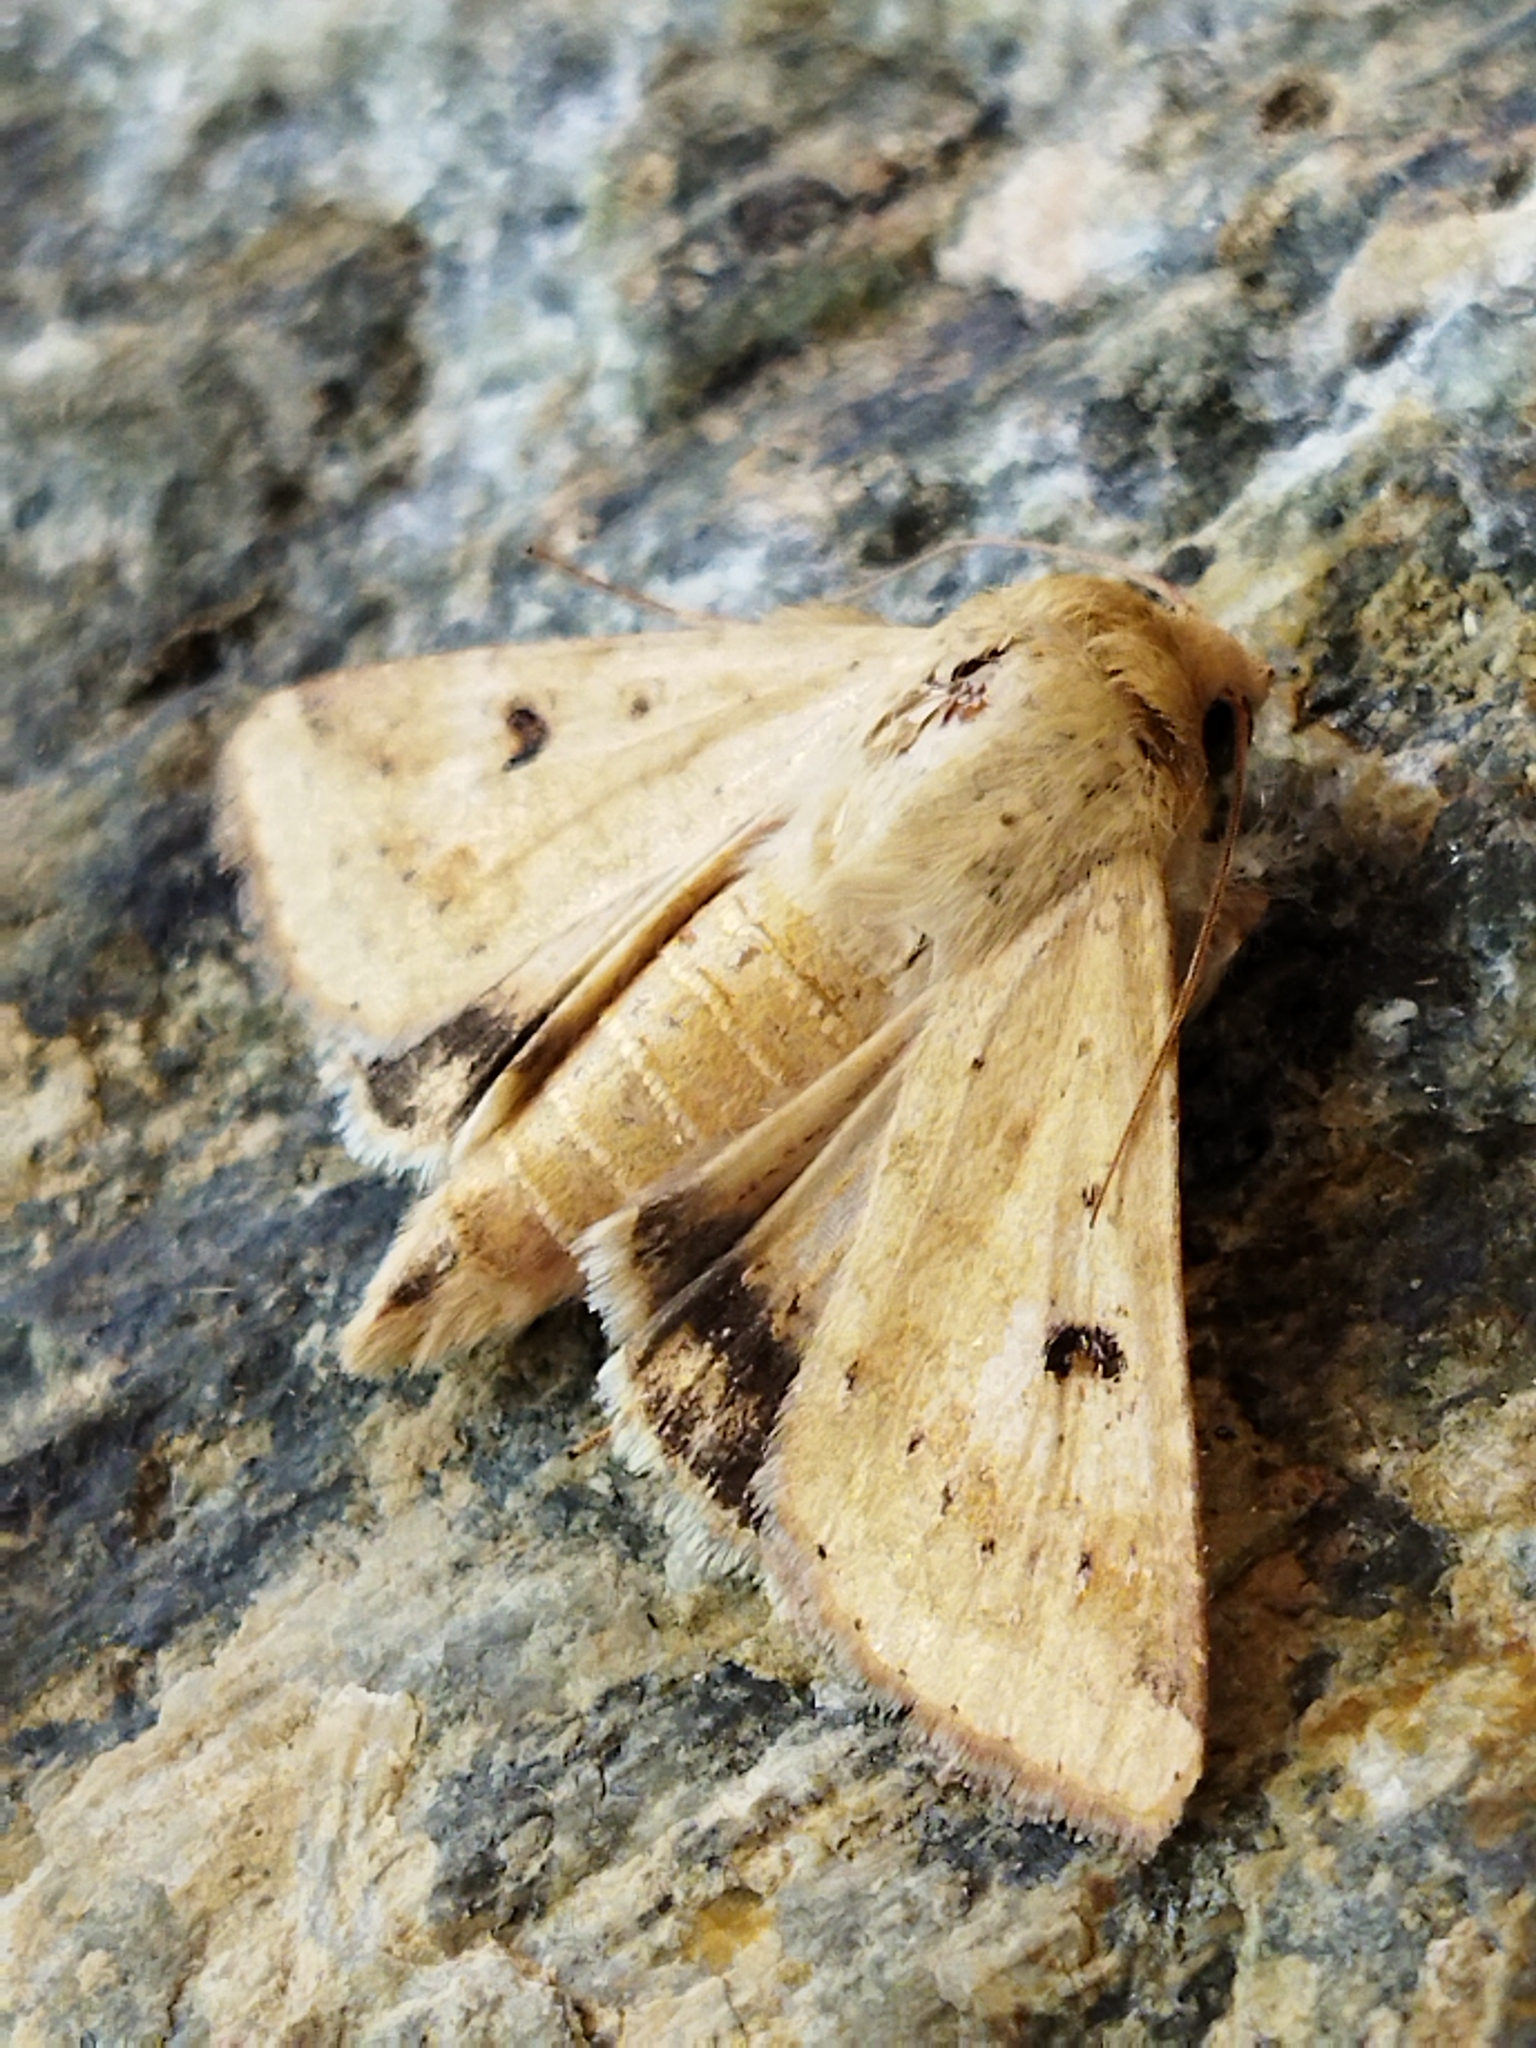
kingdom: Animalia
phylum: Arthropoda
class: Insecta
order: Lepidoptera
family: Noctuidae
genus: Helicoverpa
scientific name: Helicoverpa armigera
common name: Cotton bollworm
